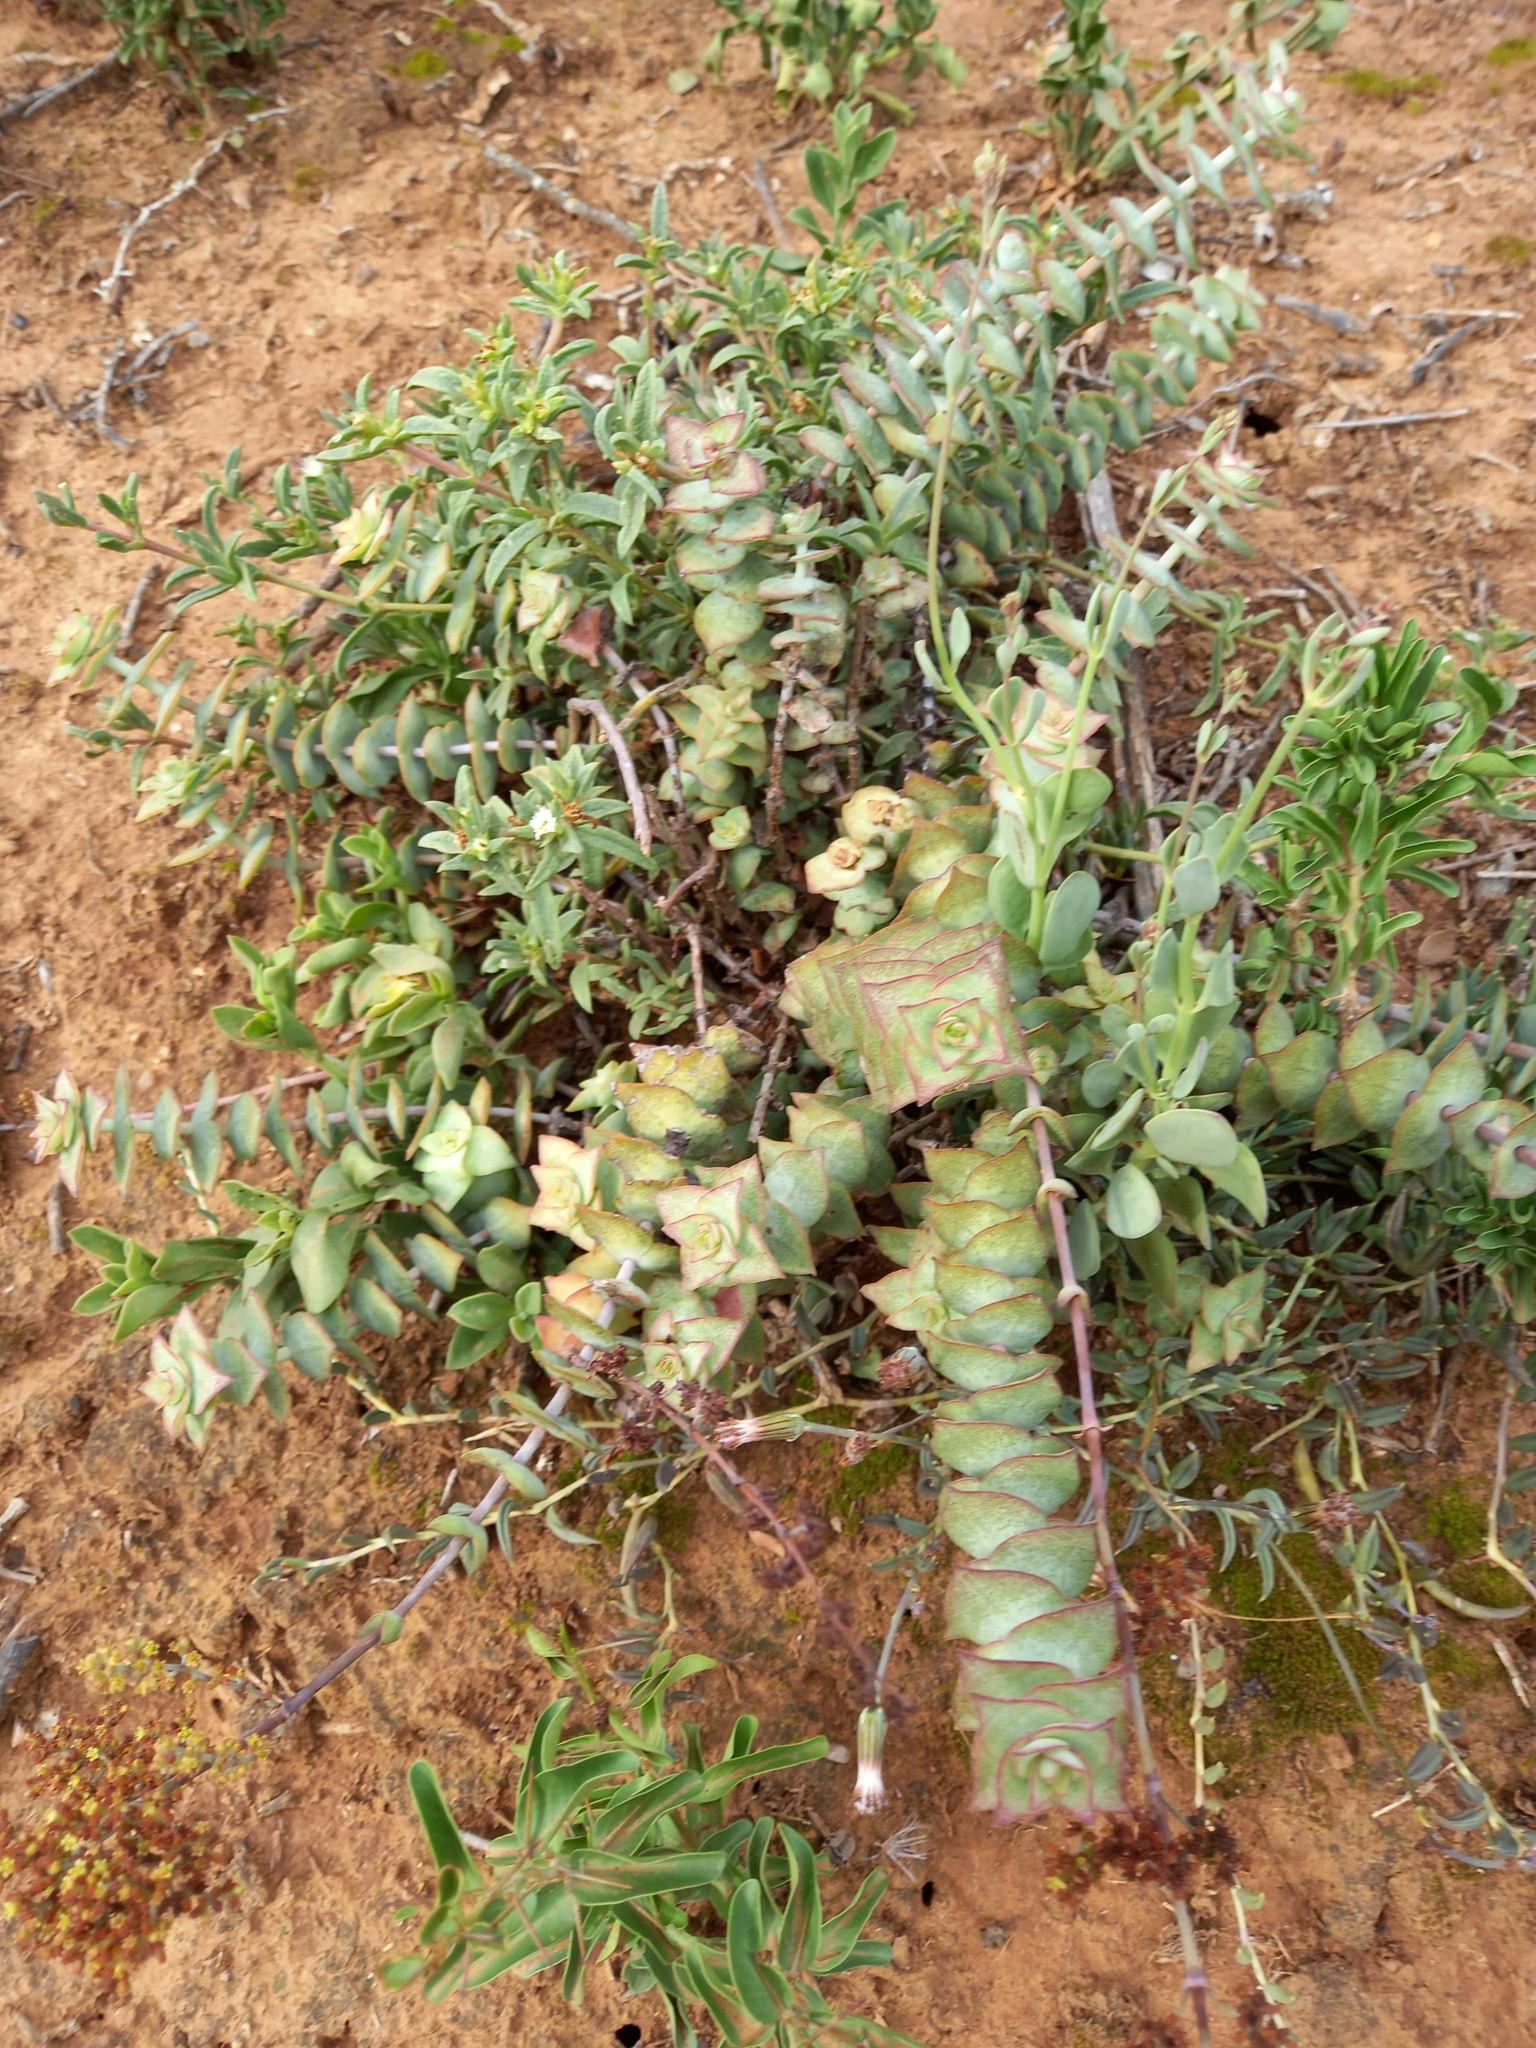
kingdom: Plantae
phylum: Tracheophyta
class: Magnoliopsida
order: Saxifragales
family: Crassulaceae
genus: Crassula
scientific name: Crassula perforata
